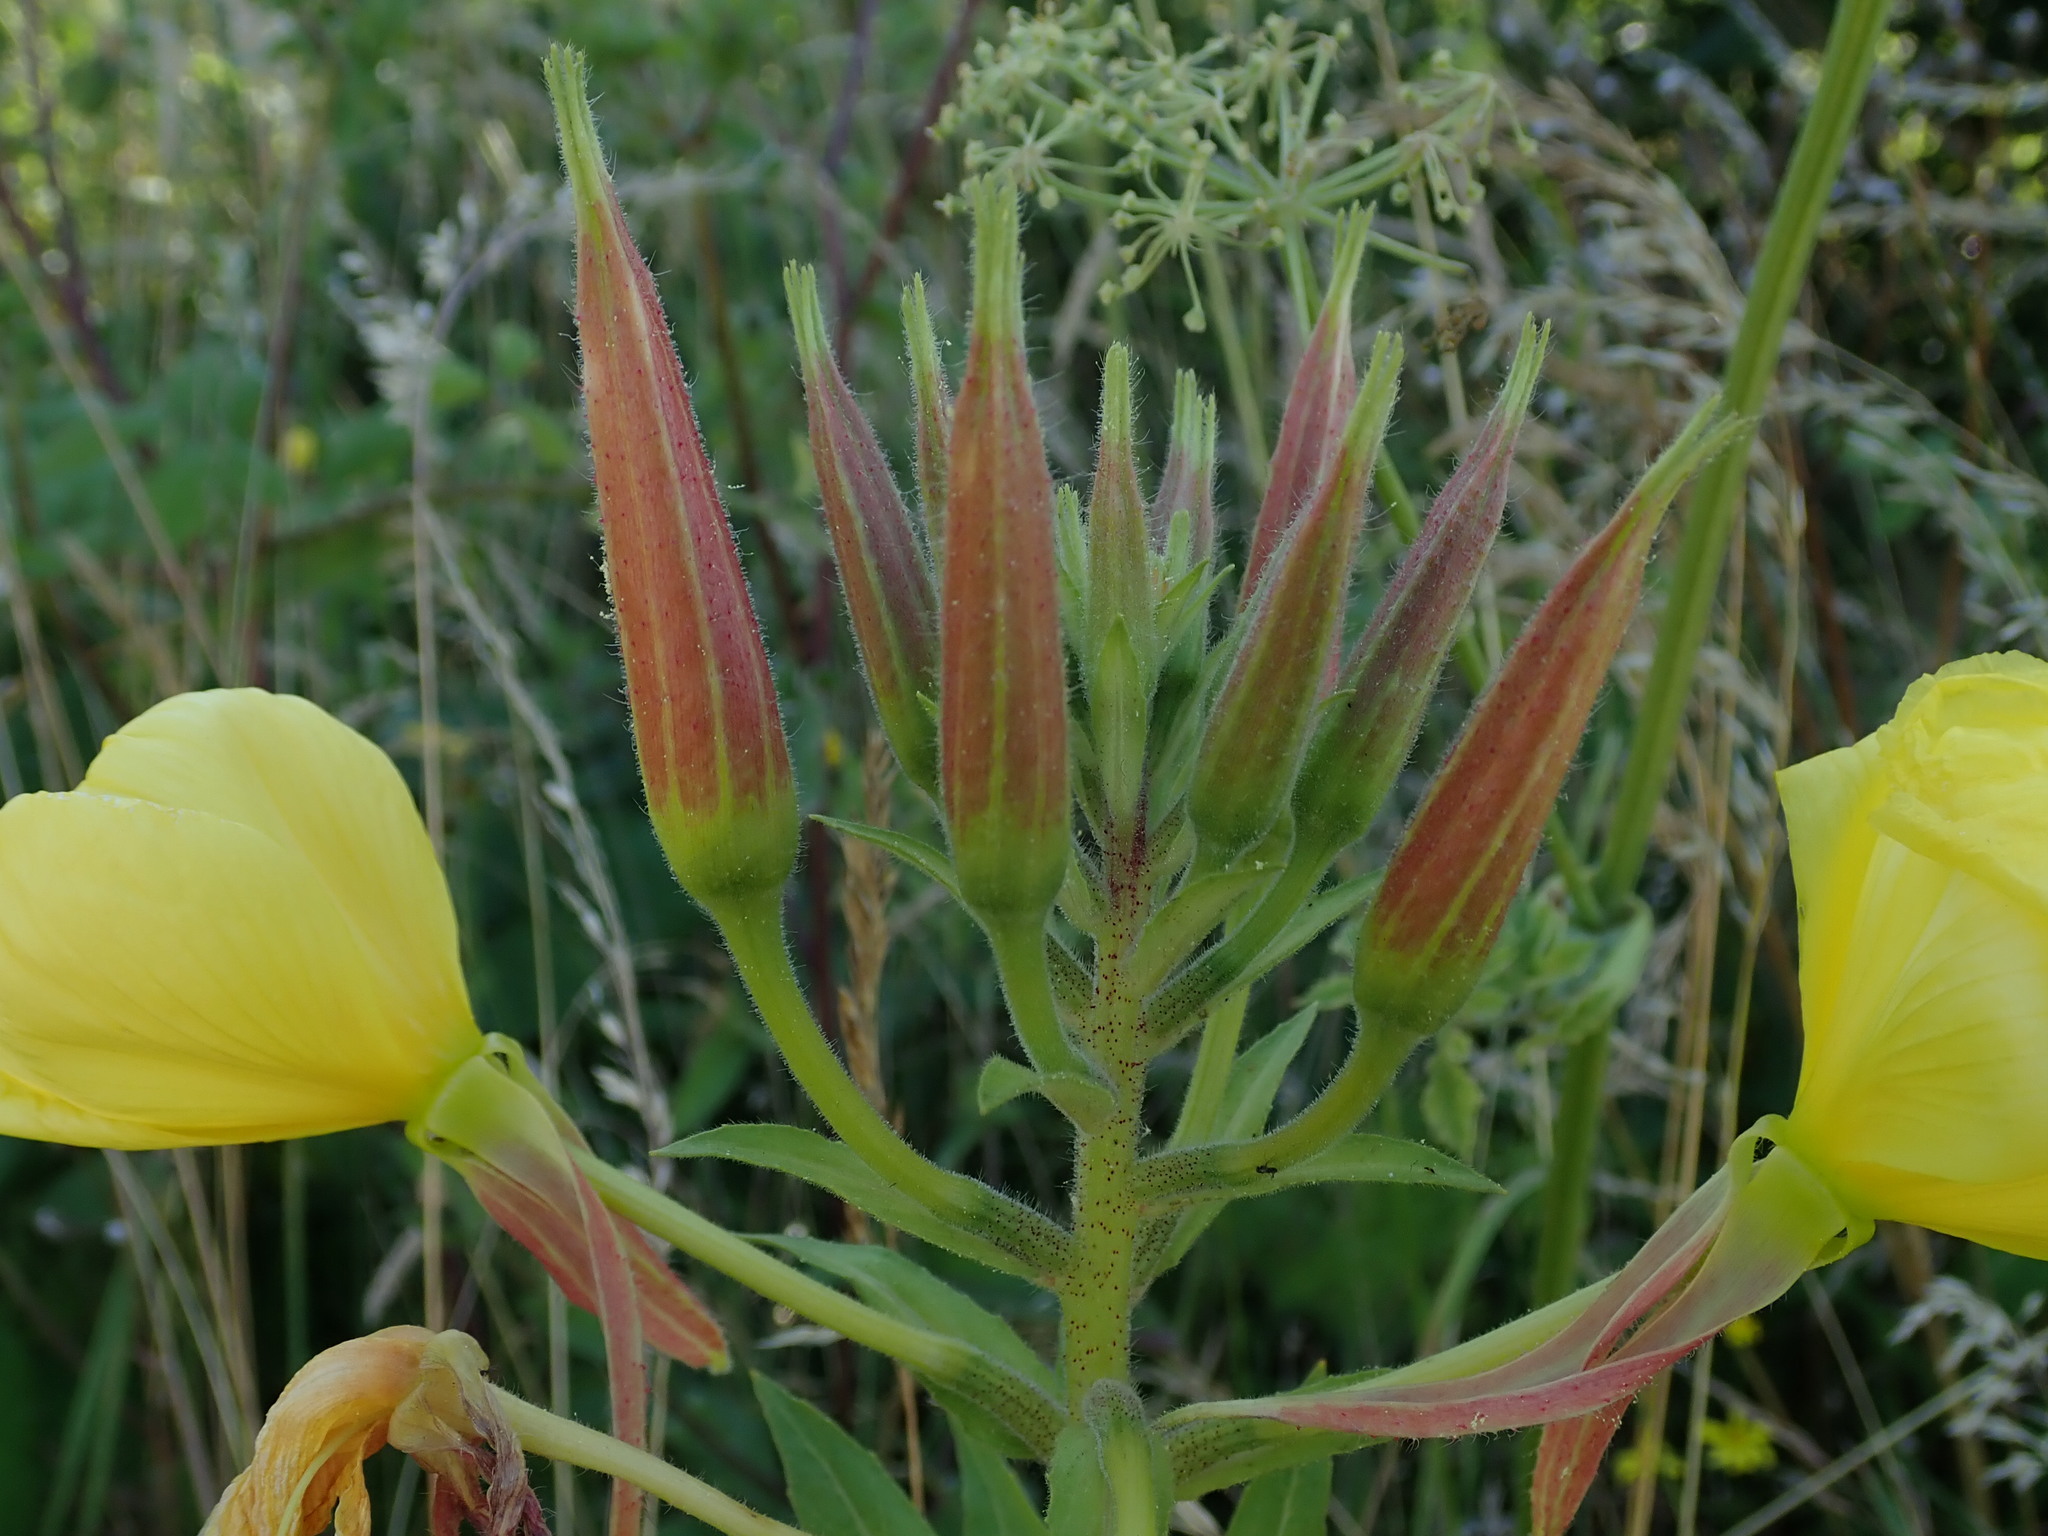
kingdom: Plantae
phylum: Tracheophyta
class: Magnoliopsida
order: Myrtales
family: Onagraceae
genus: Oenothera
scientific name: Oenothera glazioviana
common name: Large-flowered evening-primrose
